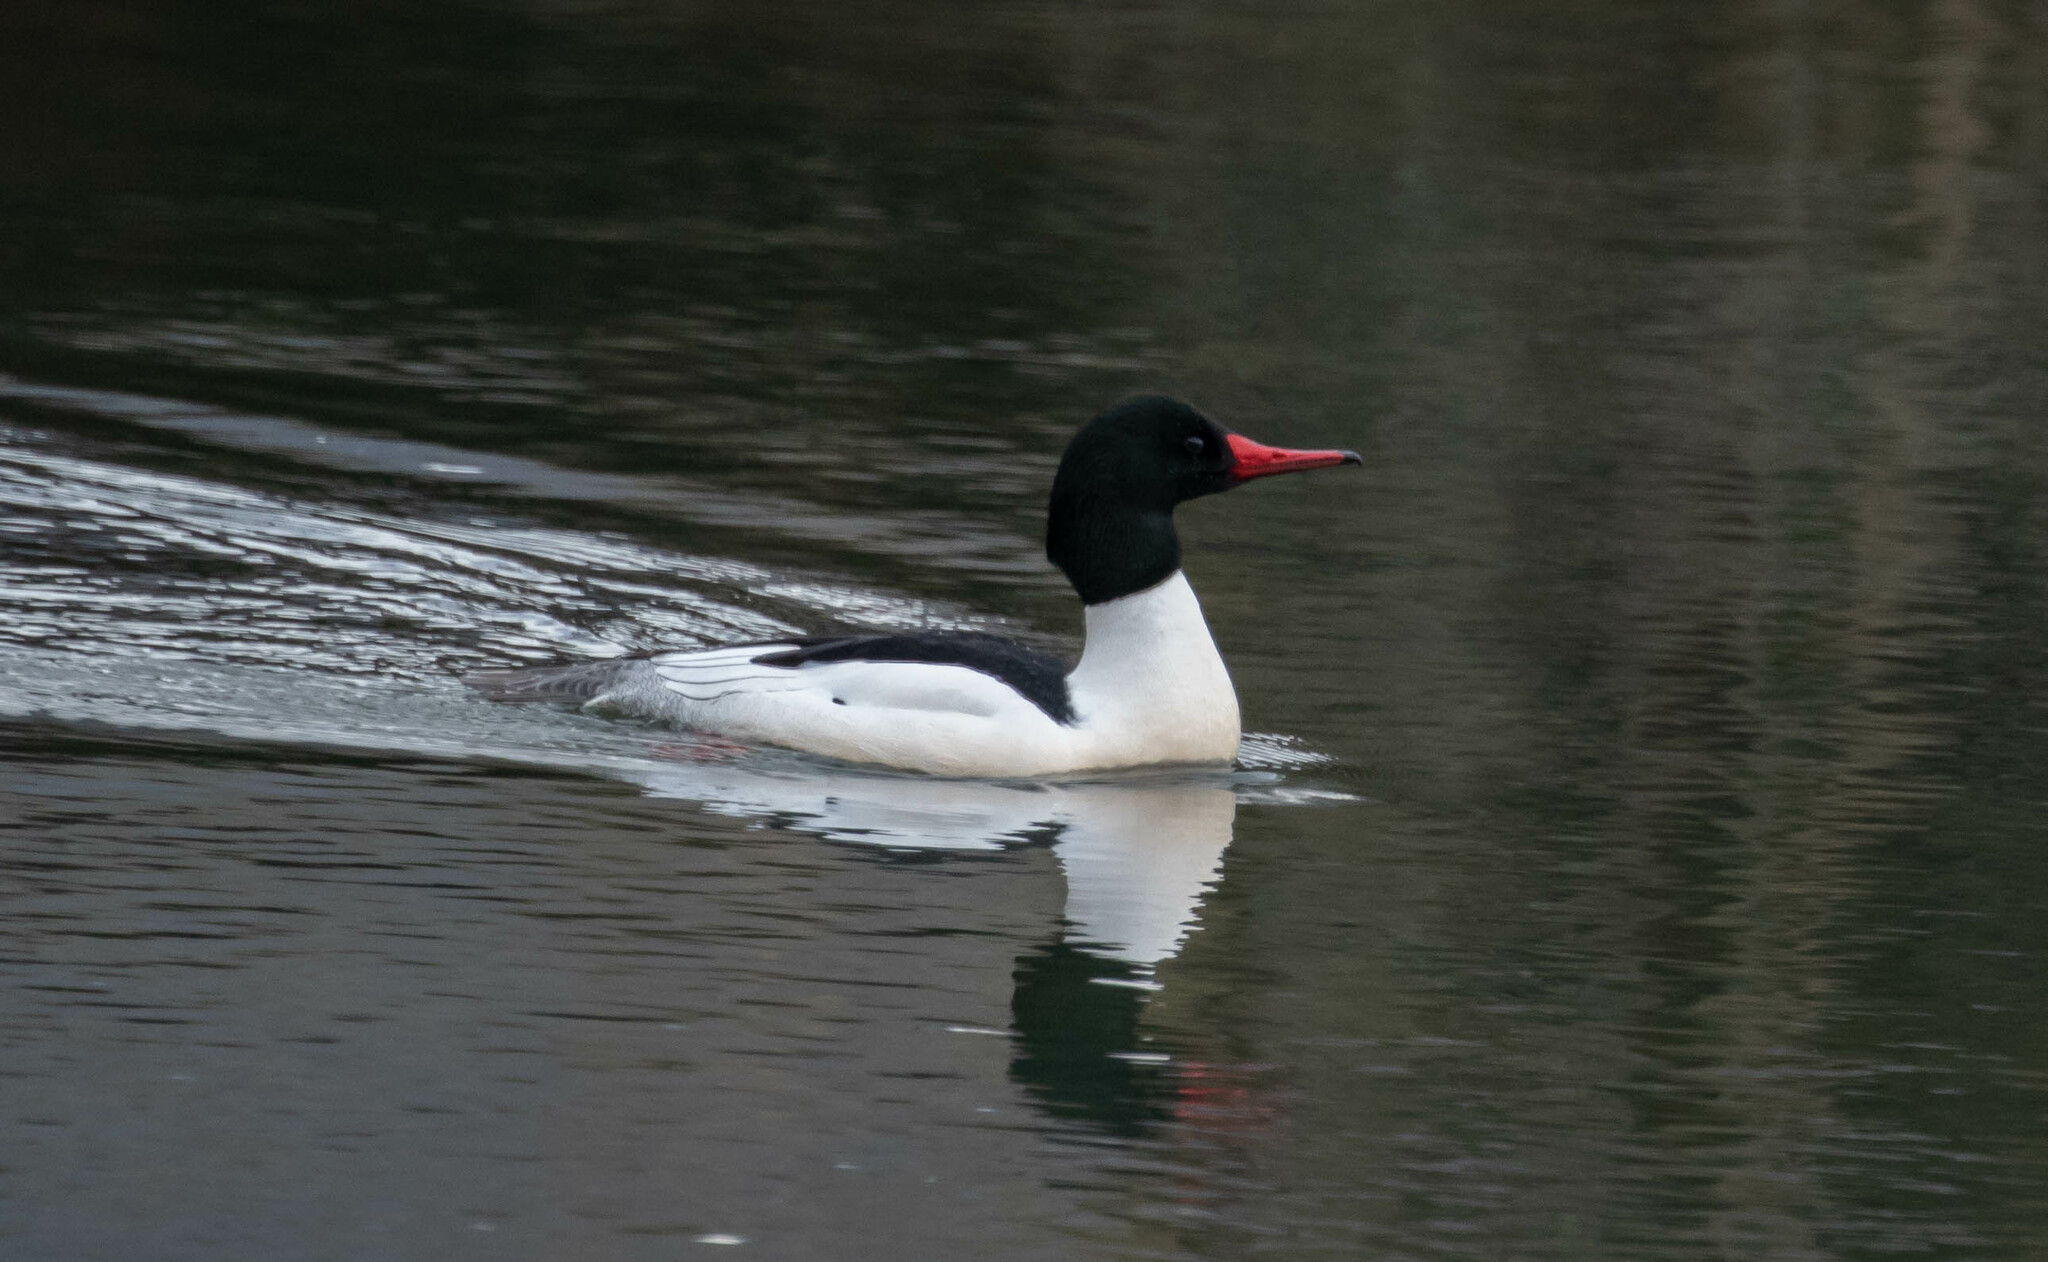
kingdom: Animalia
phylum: Chordata
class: Aves
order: Anseriformes
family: Anatidae
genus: Mergus
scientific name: Mergus merganser
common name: Common merganser
